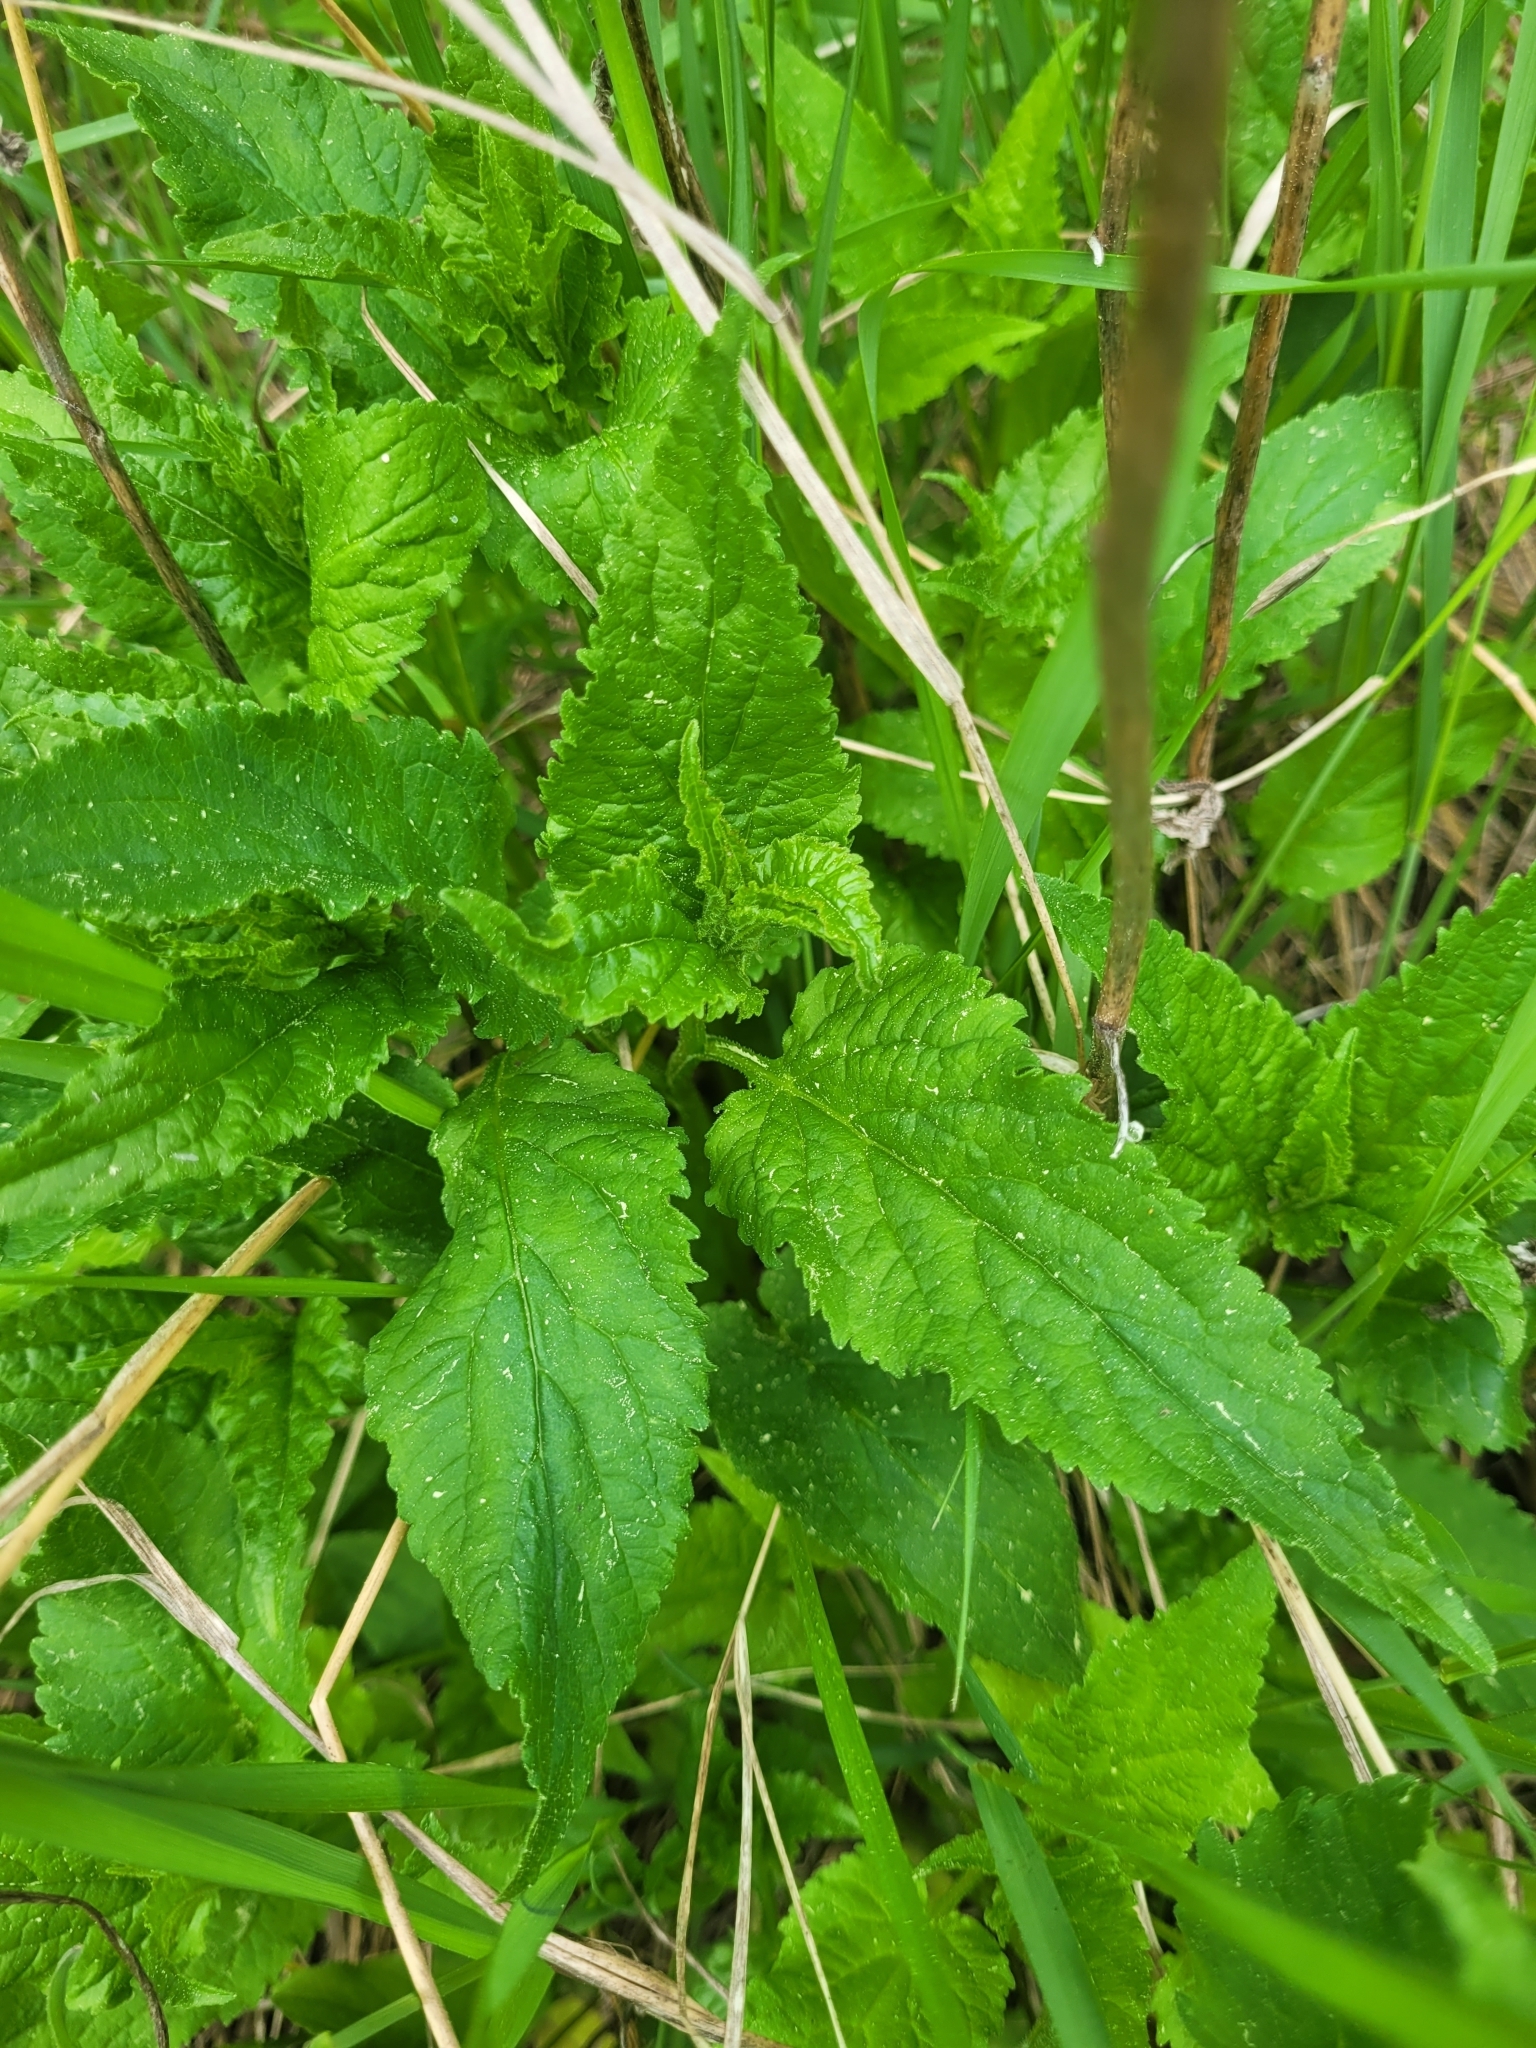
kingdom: Plantae
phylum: Tracheophyta
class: Magnoliopsida
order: Asterales
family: Campanulaceae
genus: Campanula
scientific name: Campanula rapunculoides
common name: Creeping bellflower
